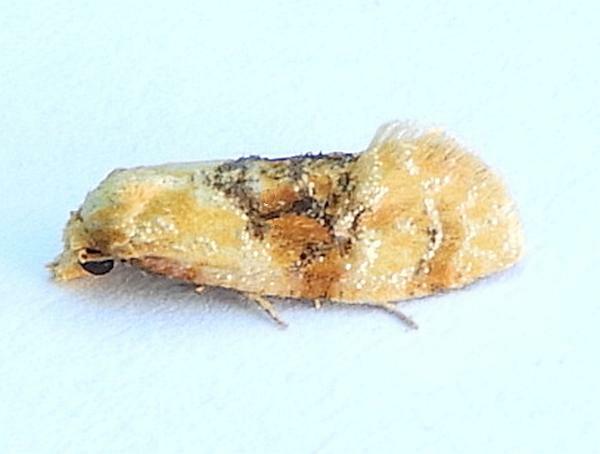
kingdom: Animalia
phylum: Arthropoda
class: Insecta
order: Lepidoptera
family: Tortricidae
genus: Cochylis
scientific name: Cochylis Cochylichroa hospes
